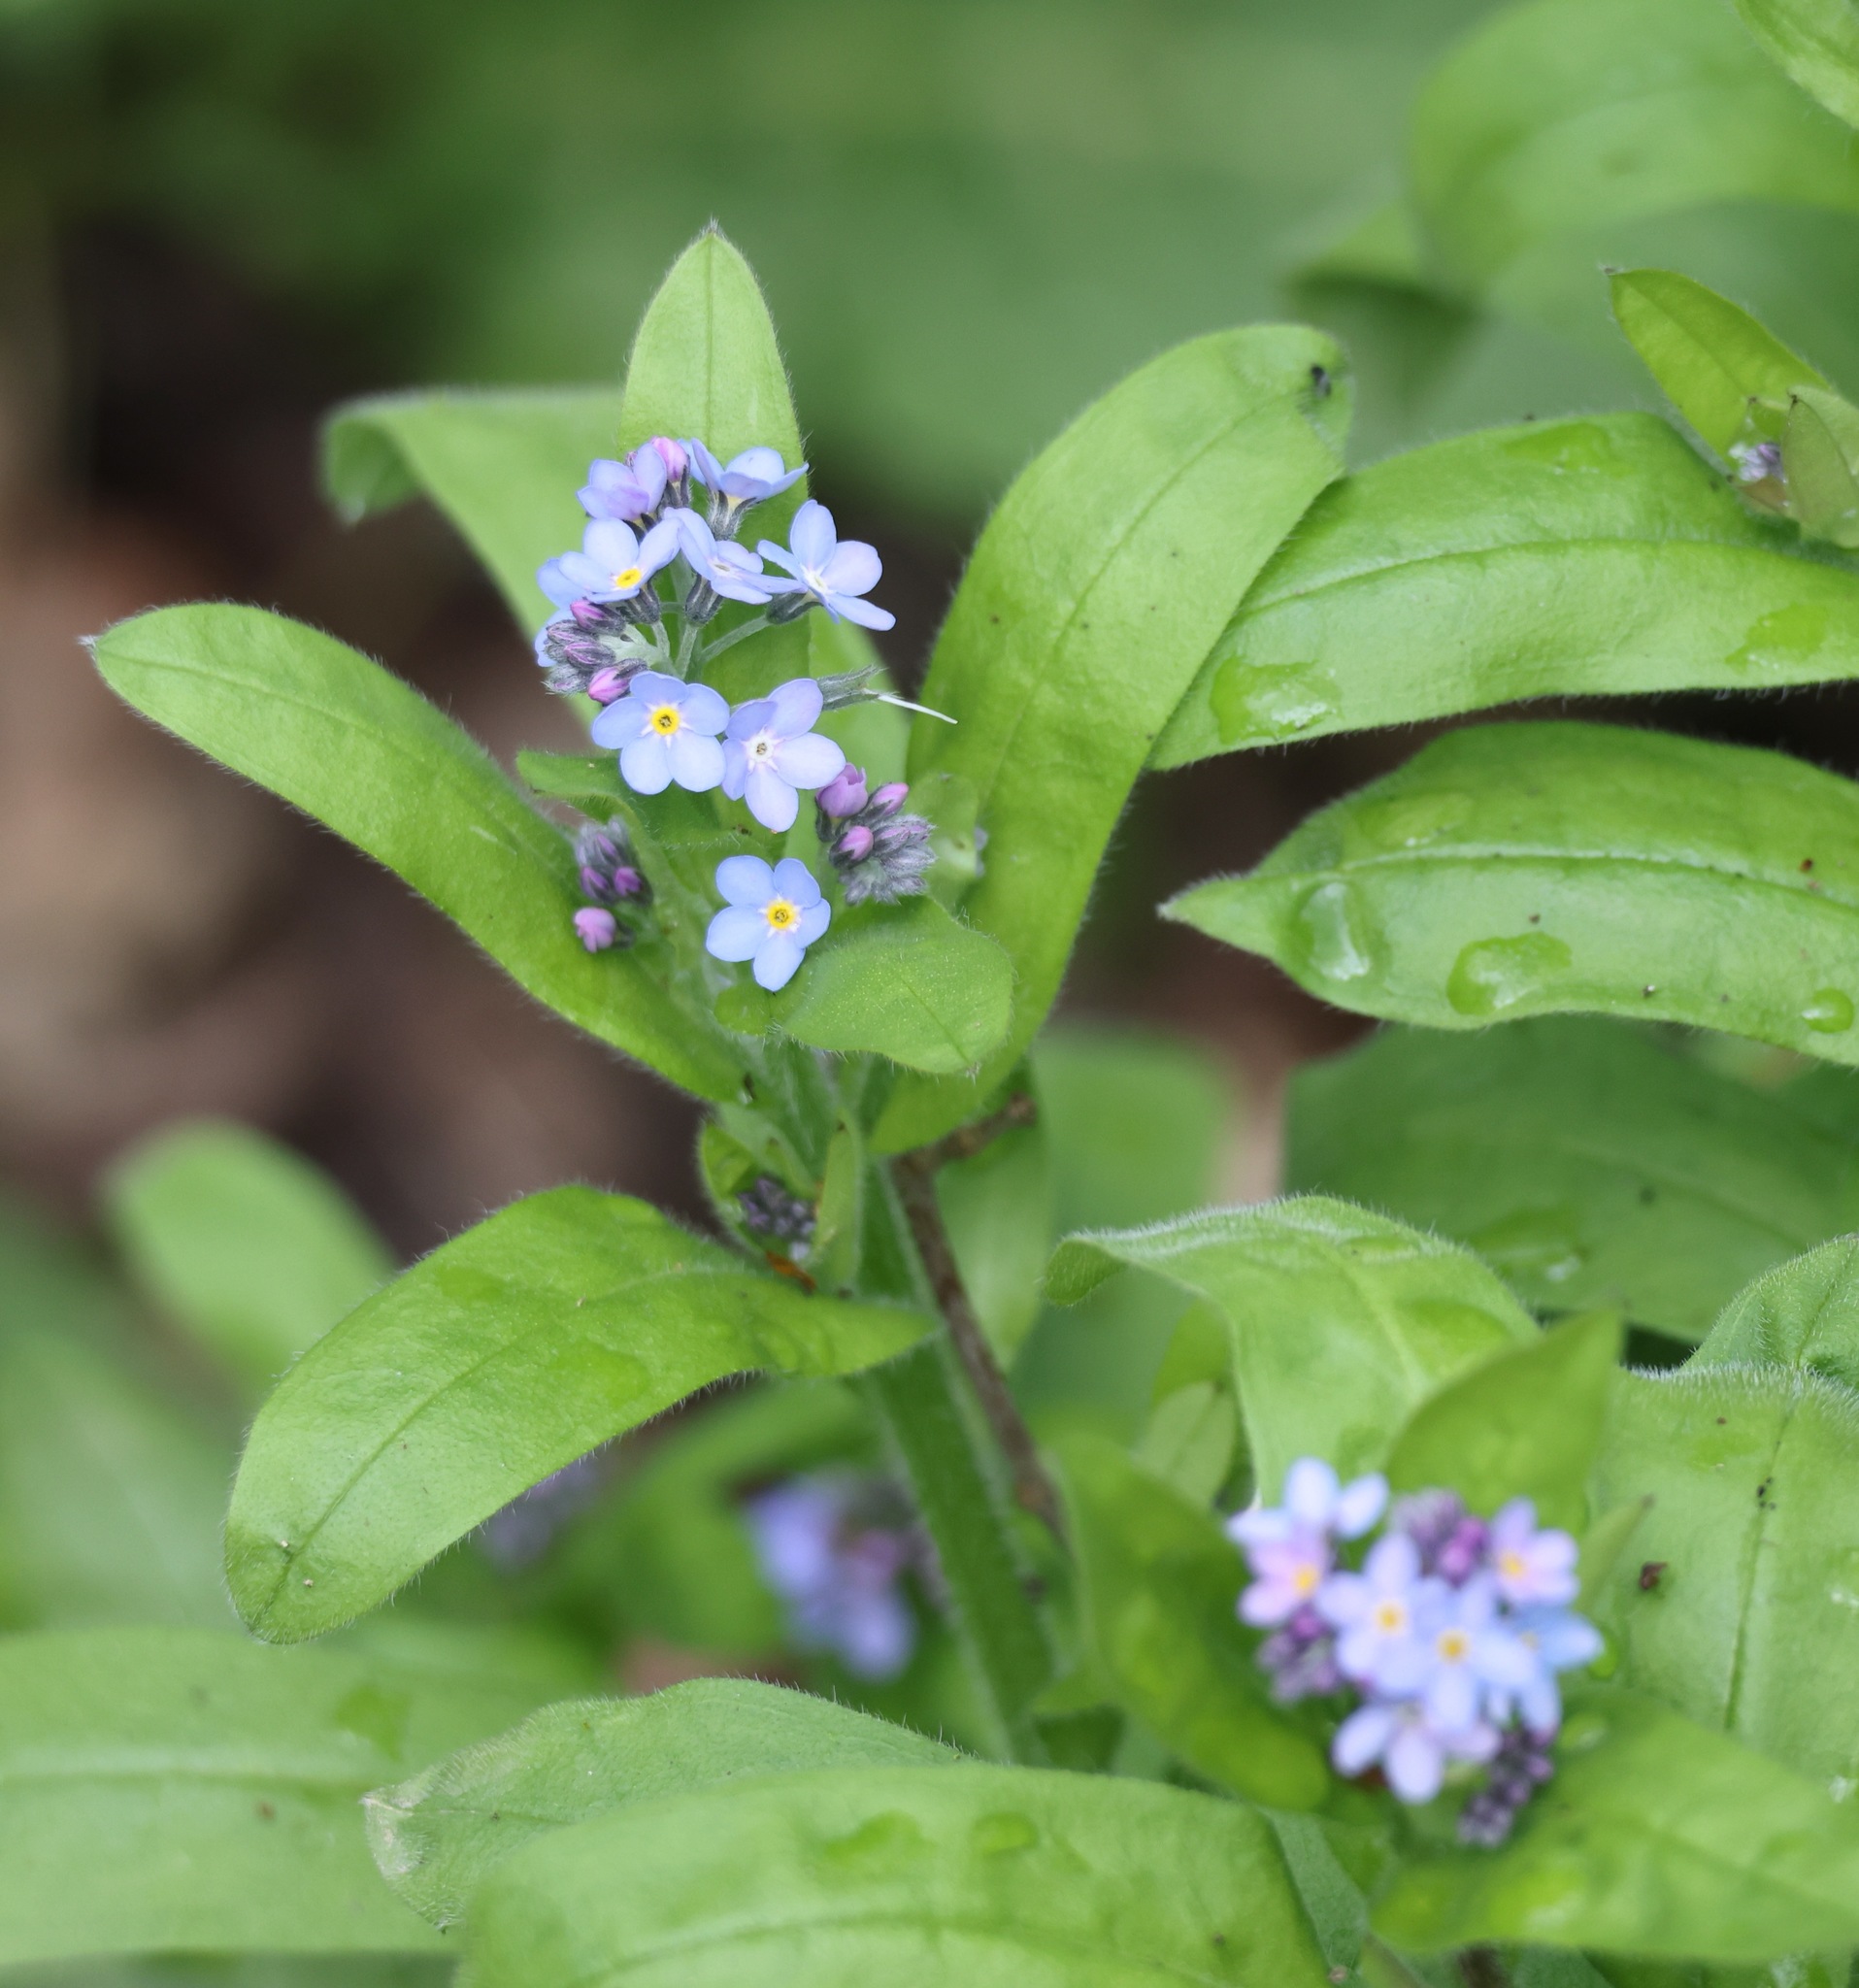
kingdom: Plantae
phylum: Tracheophyta
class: Magnoliopsida
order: Boraginales
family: Boraginaceae
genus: Myosotis
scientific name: Myosotis sylvatica
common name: Wood forget-me-not
